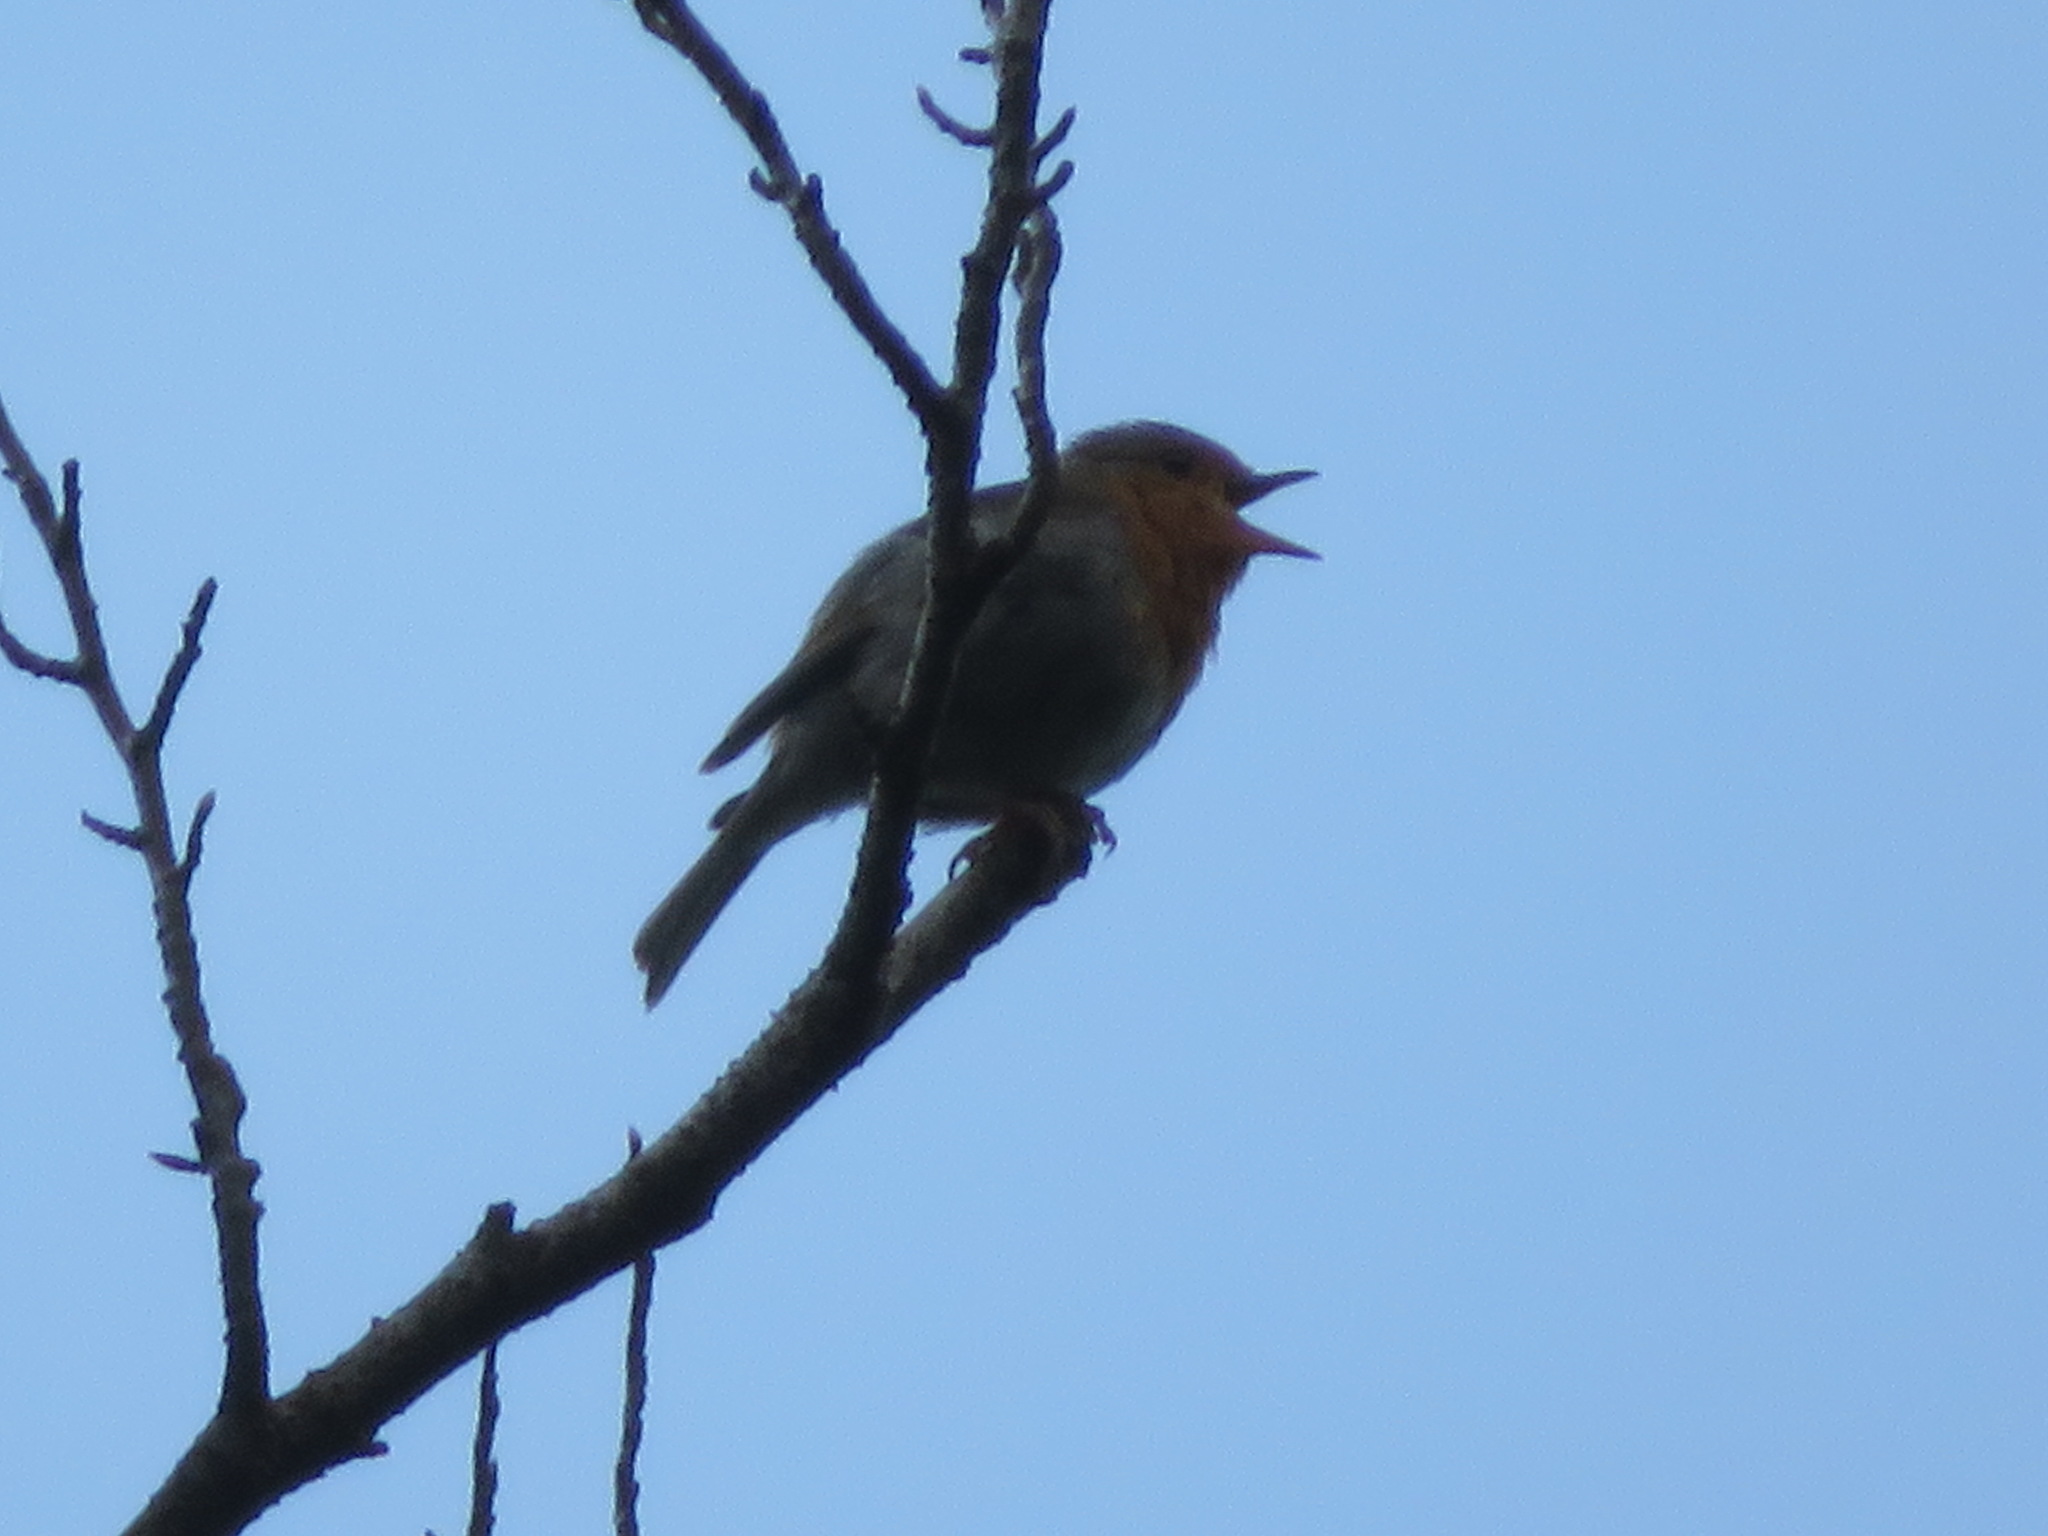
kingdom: Animalia
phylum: Chordata
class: Aves
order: Passeriformes
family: Muscicapidae
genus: Erithacus
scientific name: Erithacus rubecula
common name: European robin
